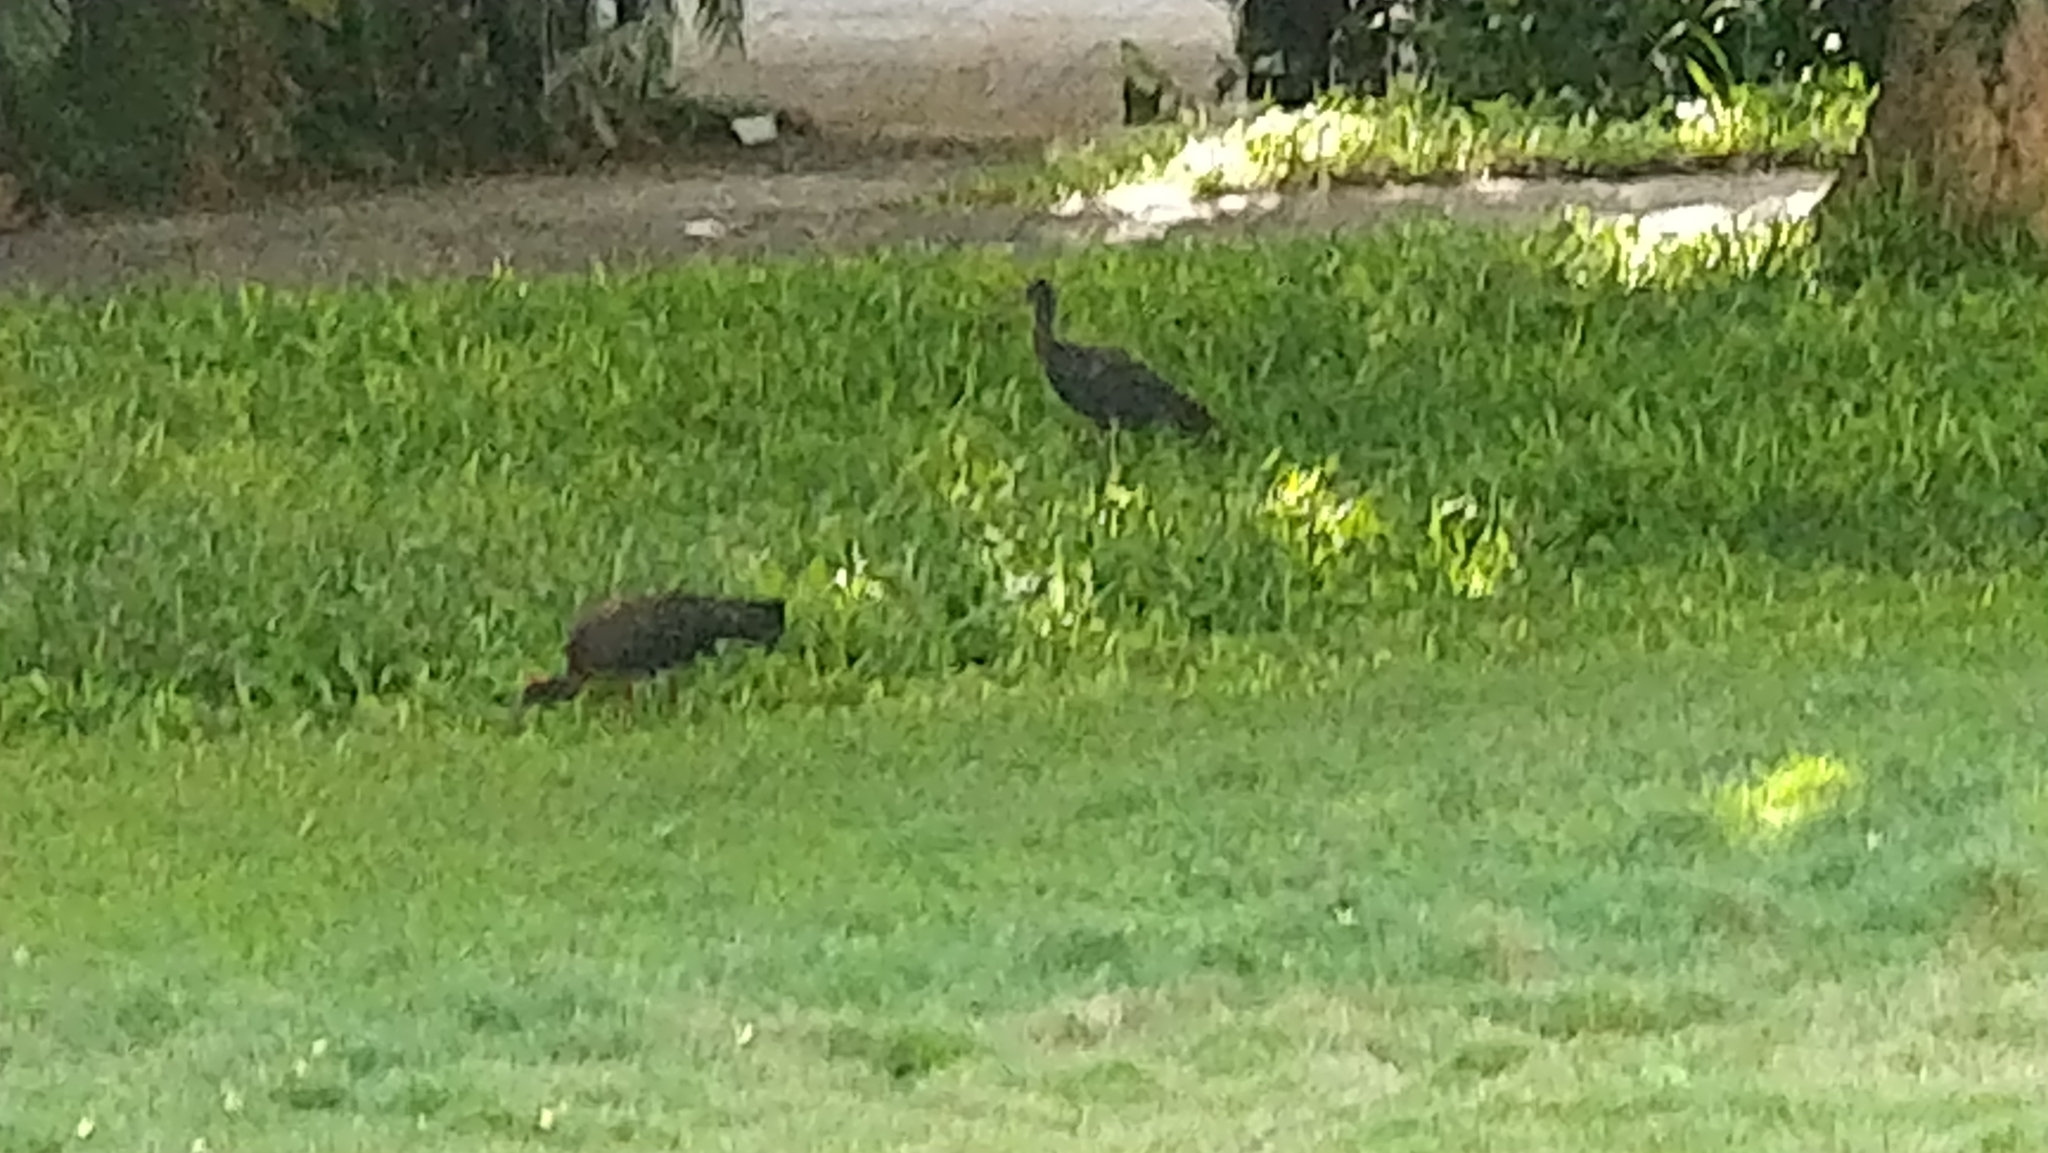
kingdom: Animalia
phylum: Chordata
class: Aves
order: Pelecaniformes
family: Threskiornithidae
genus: Pseudibis
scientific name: Pseudibis papillosa
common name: Red-naped ibis
